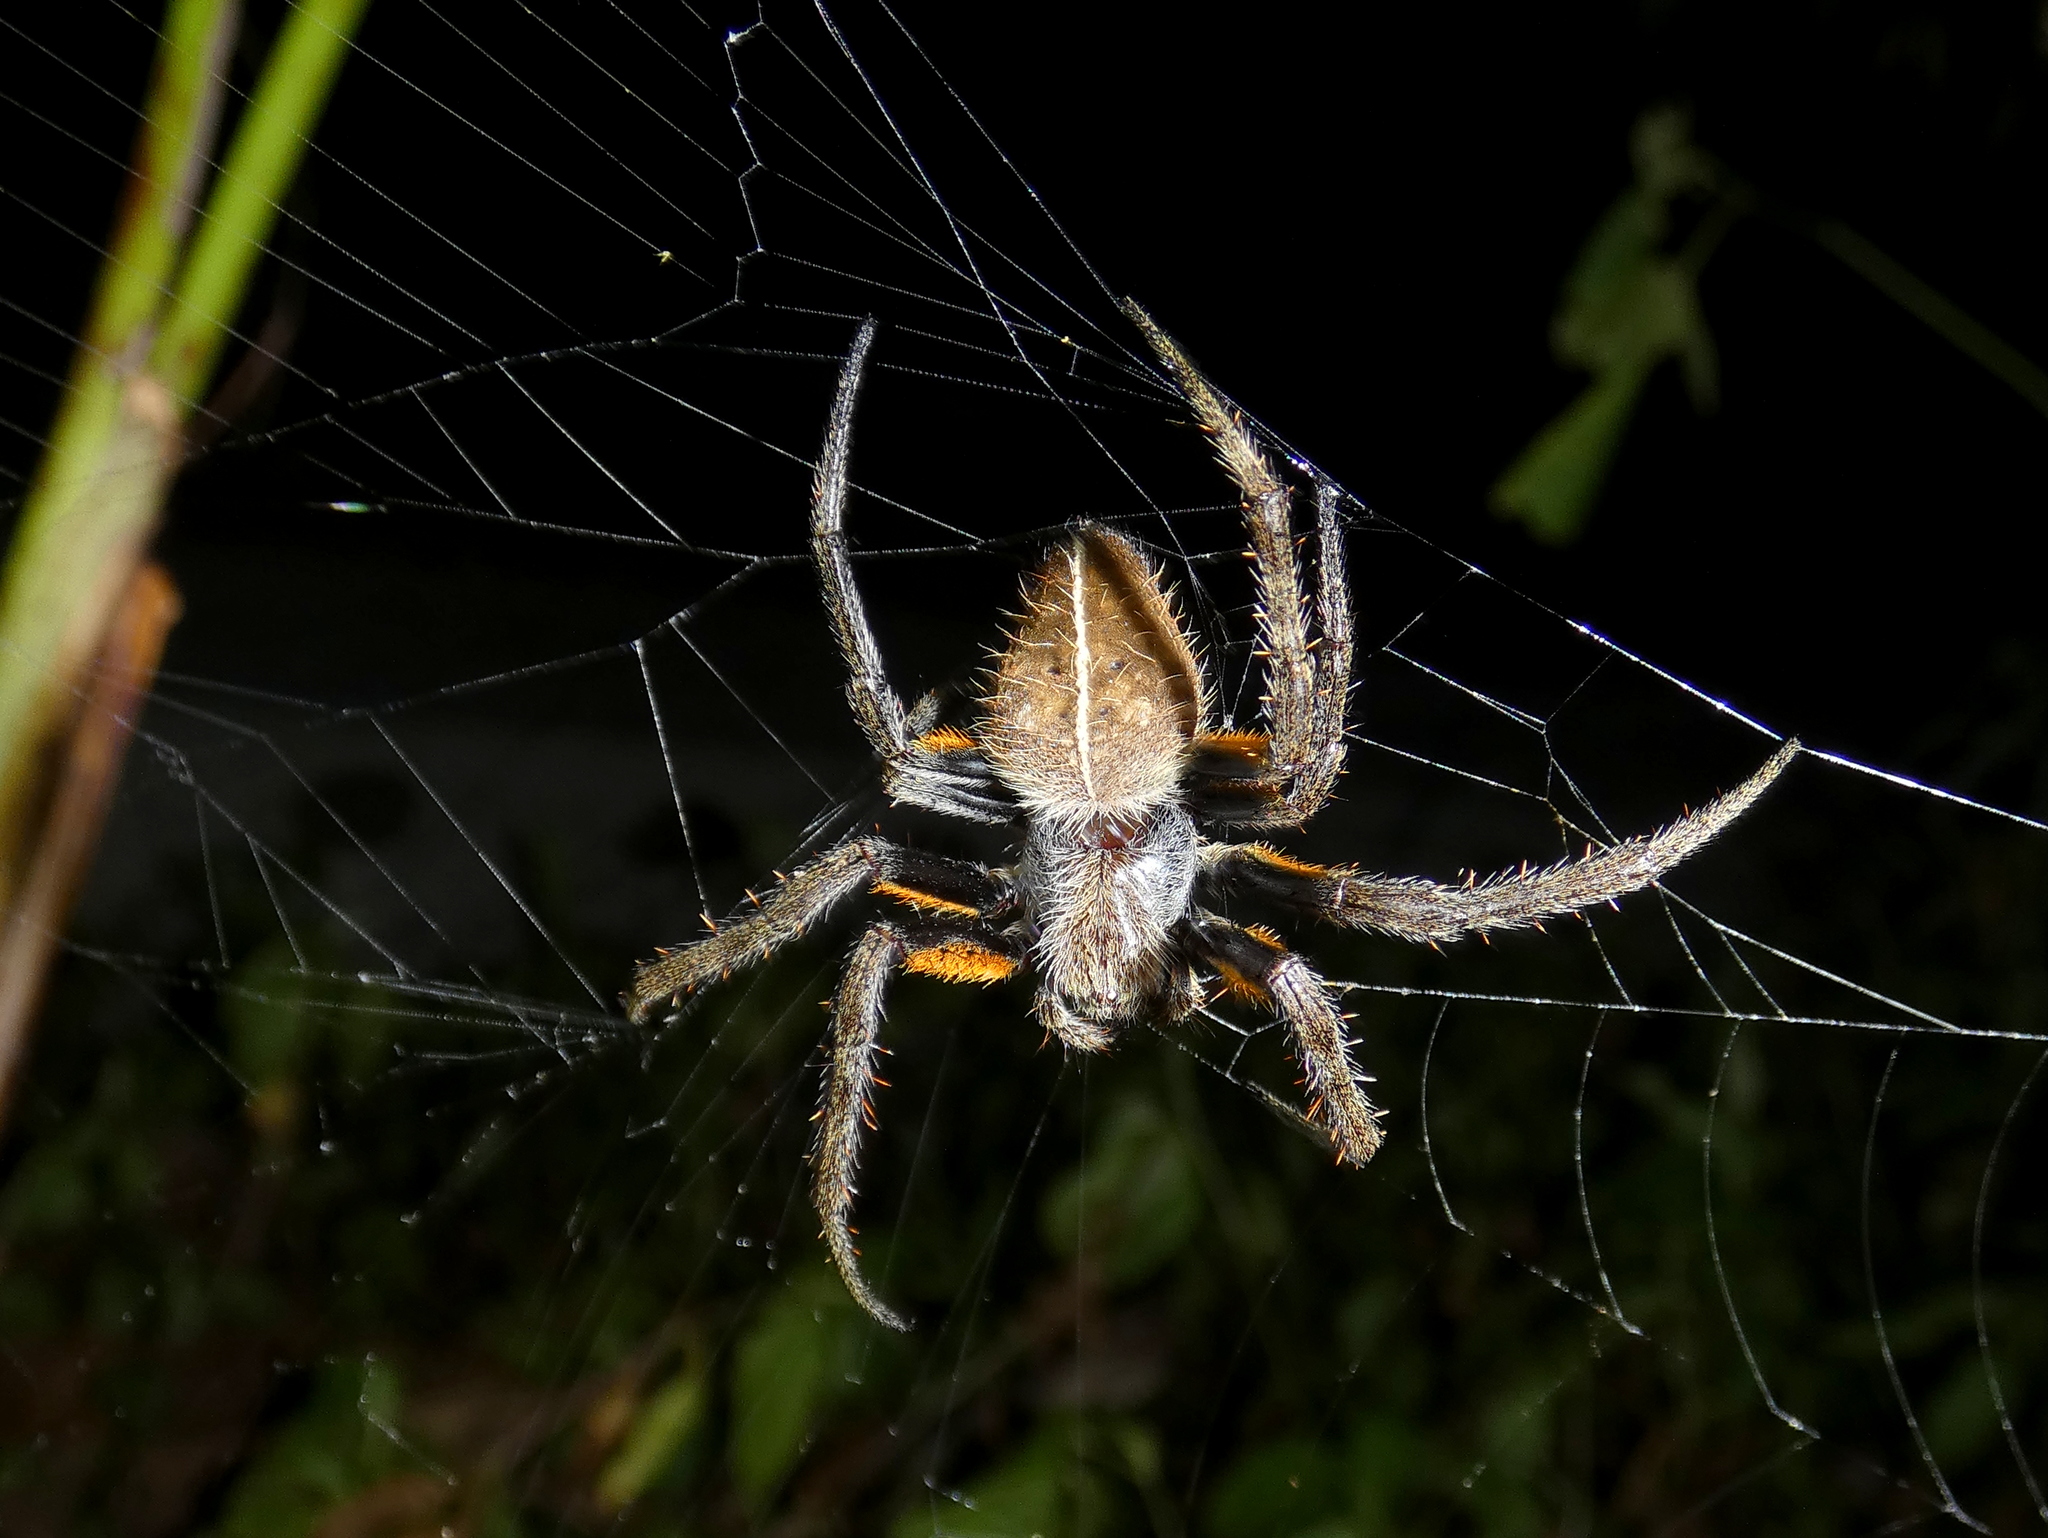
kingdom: Animalia
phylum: Arthropoda
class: Arachnida
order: Araneae
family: Araneidae
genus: Eriophora
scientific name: Eriophora fuliginea
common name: Orb weavers
